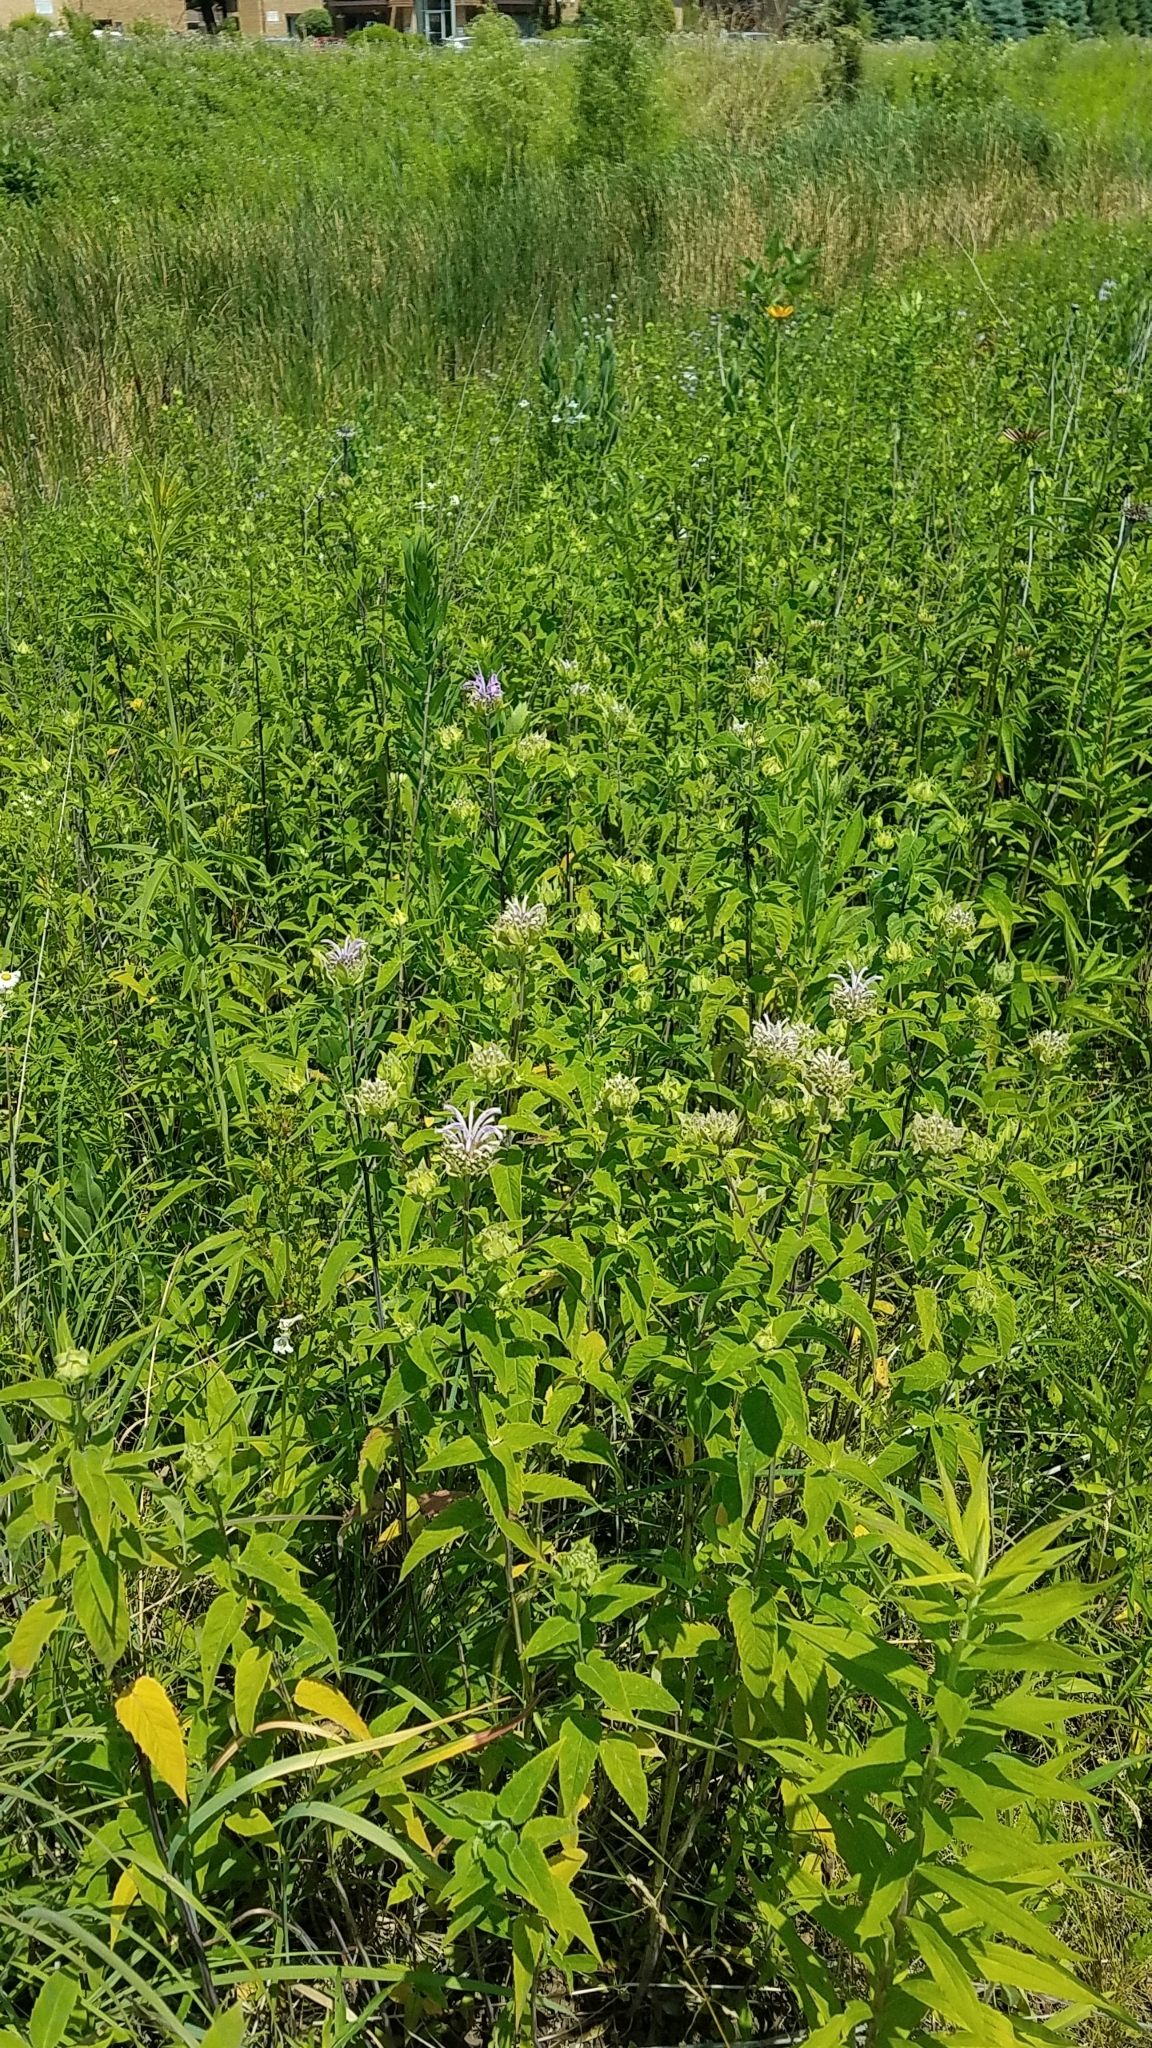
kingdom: Plantae
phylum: Tracheophyta
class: Magnoliopsida
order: Lamiales
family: Lamiaceae
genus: Monarda
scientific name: Monarda fistulosa
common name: Purple beebalm
